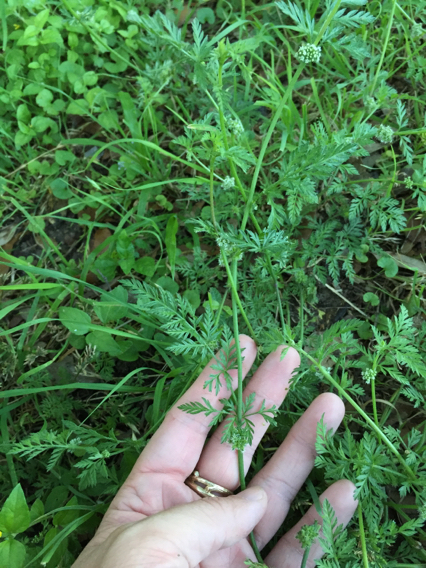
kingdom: Plantae
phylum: Tracheophyta
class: Magnoliopsida
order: Apiales
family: Apiaceae
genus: Torilis
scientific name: Torilis nodosa
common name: Knotted hedge-parsley
